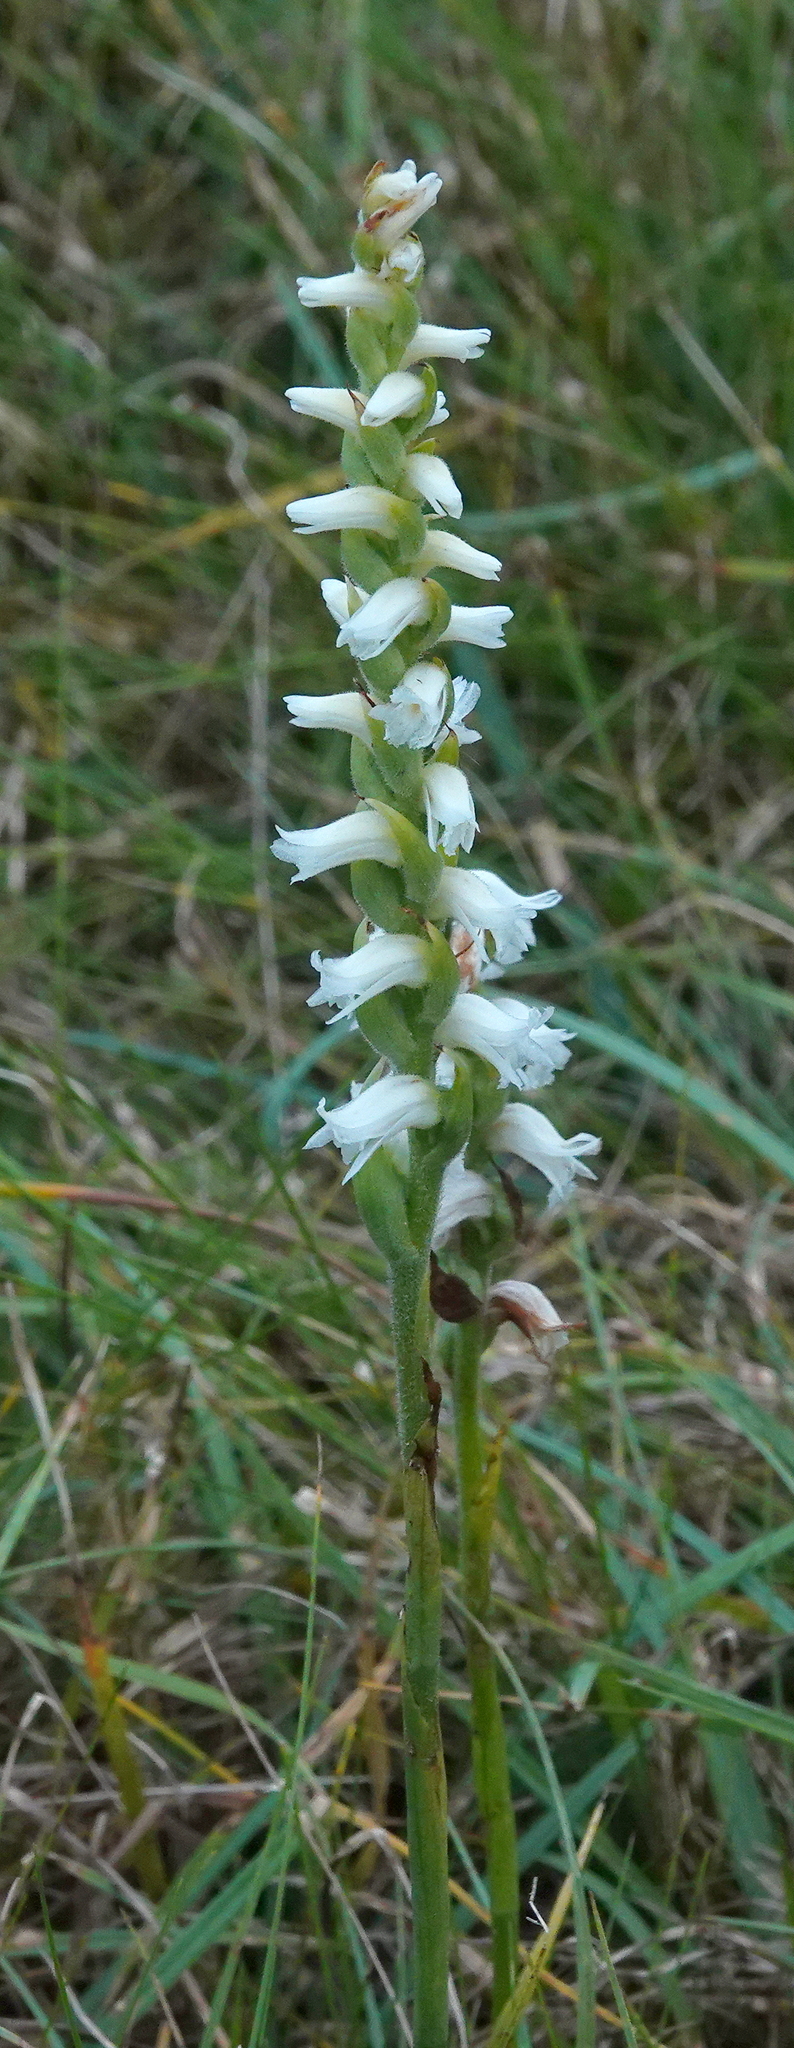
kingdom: Plantae
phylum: Tracheophyta
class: Liliopsida
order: Asparagales
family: Orchidaceae
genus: Spiranthes
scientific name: Spiranthes ochroleuca
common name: Yellow ladies'-tresses
